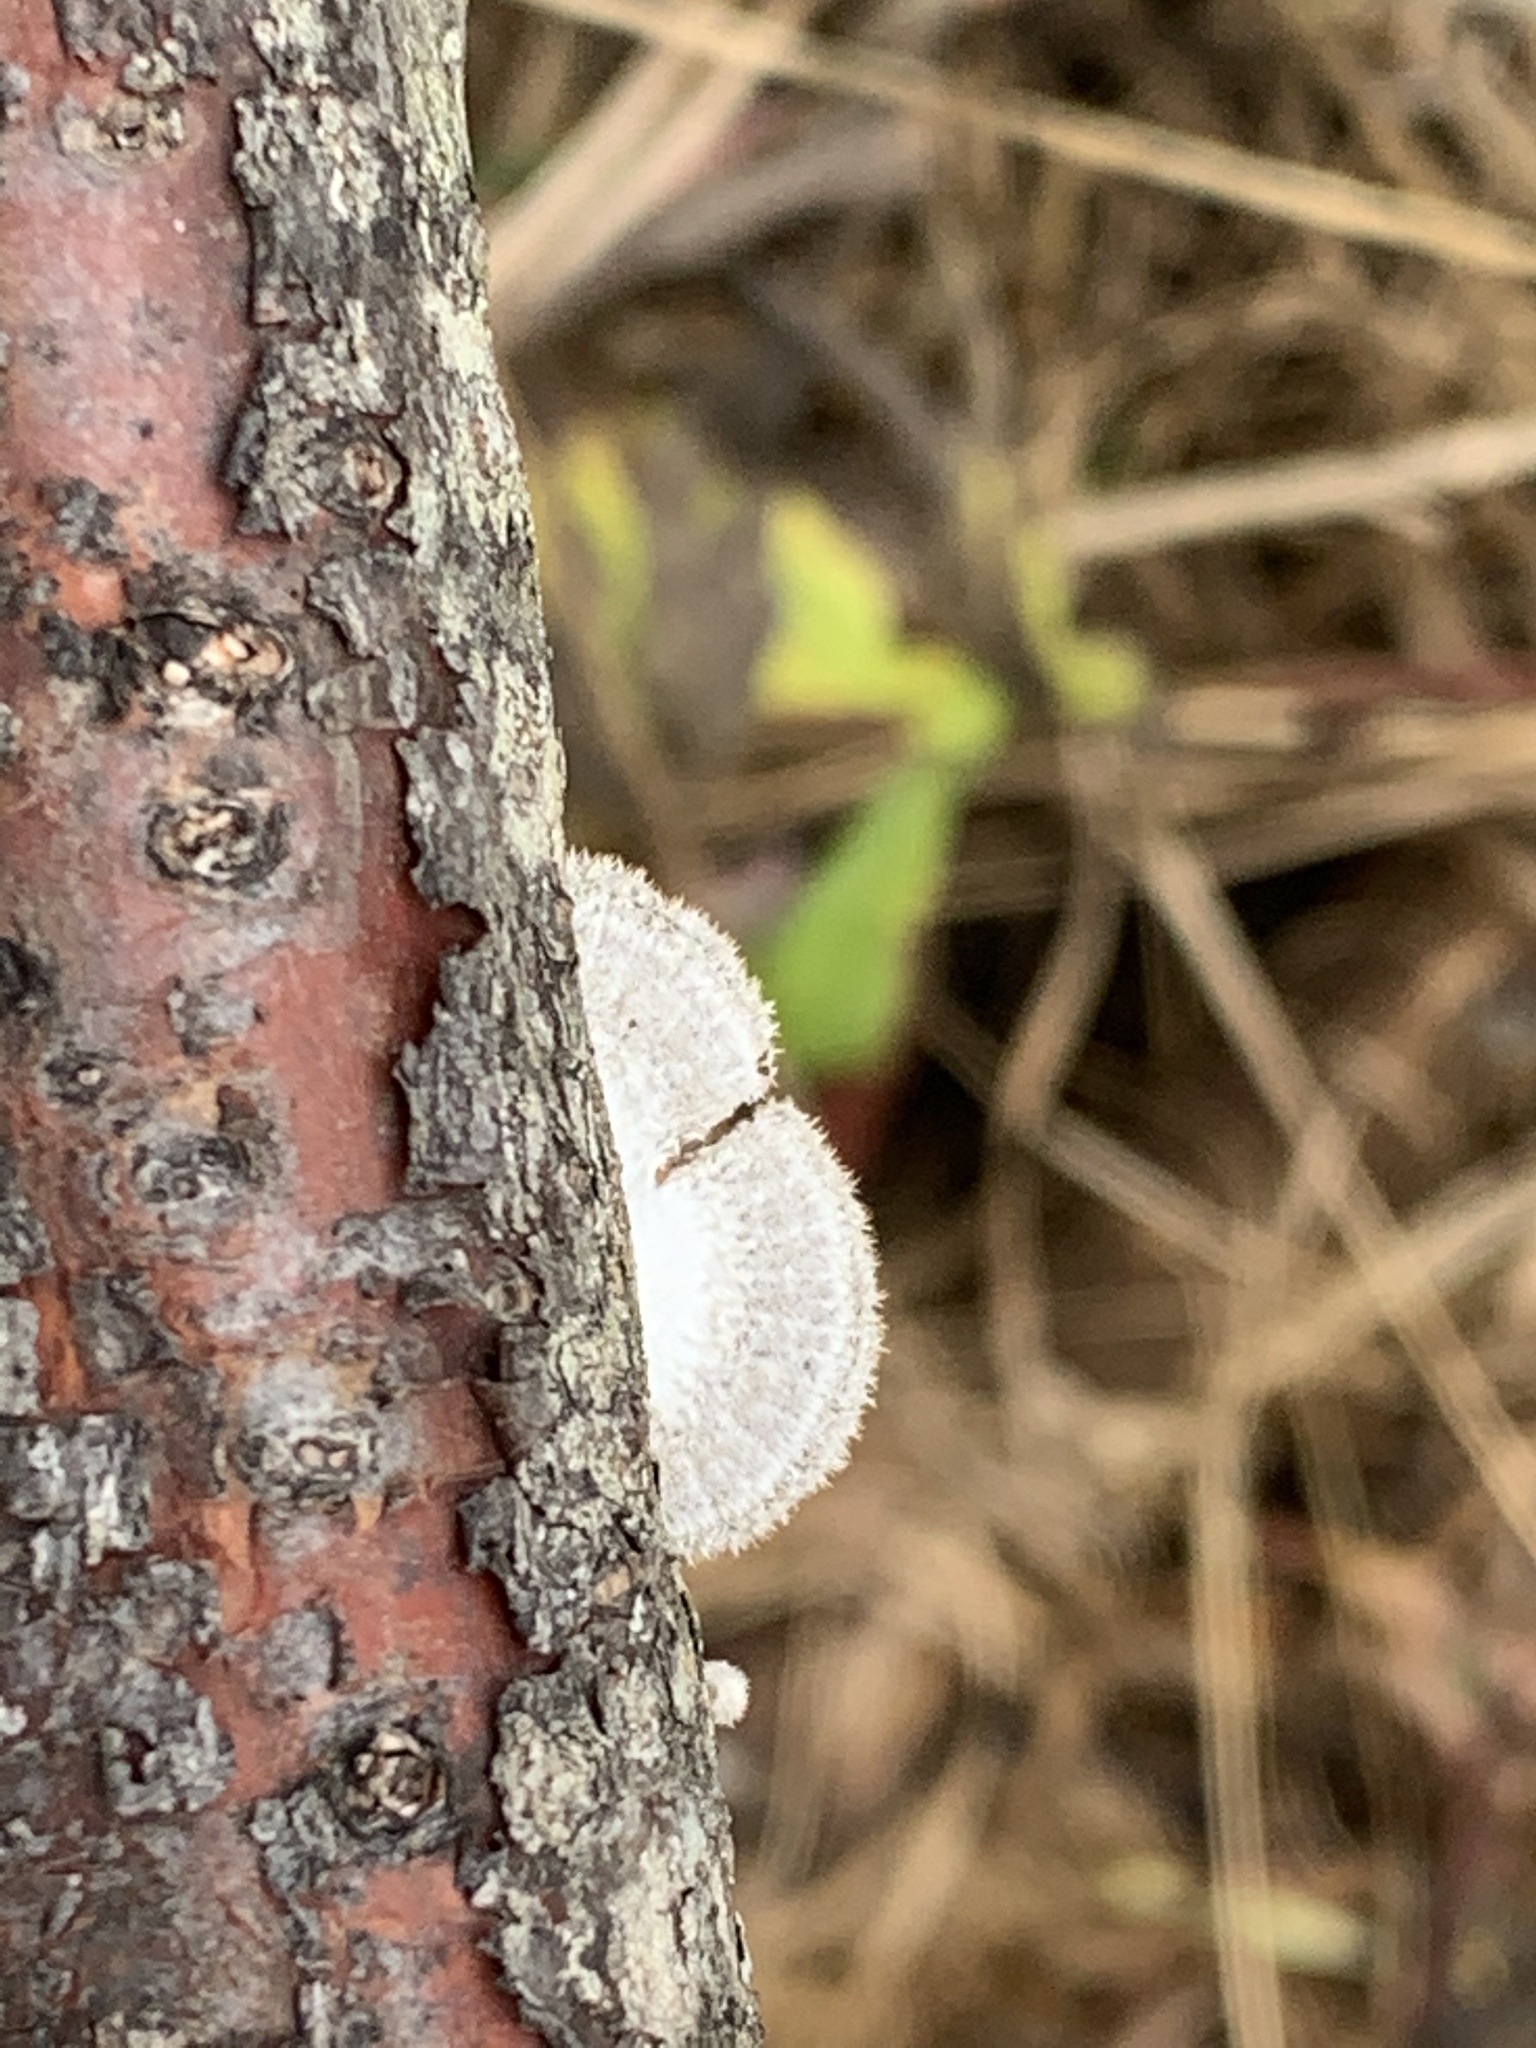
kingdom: Fungi
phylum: Basidiomycota
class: Agaricomycetes
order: Agaricales
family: Schizophyllaceae
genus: Schizophyllum
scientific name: Schizophyllum commune
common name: Common porecrust
